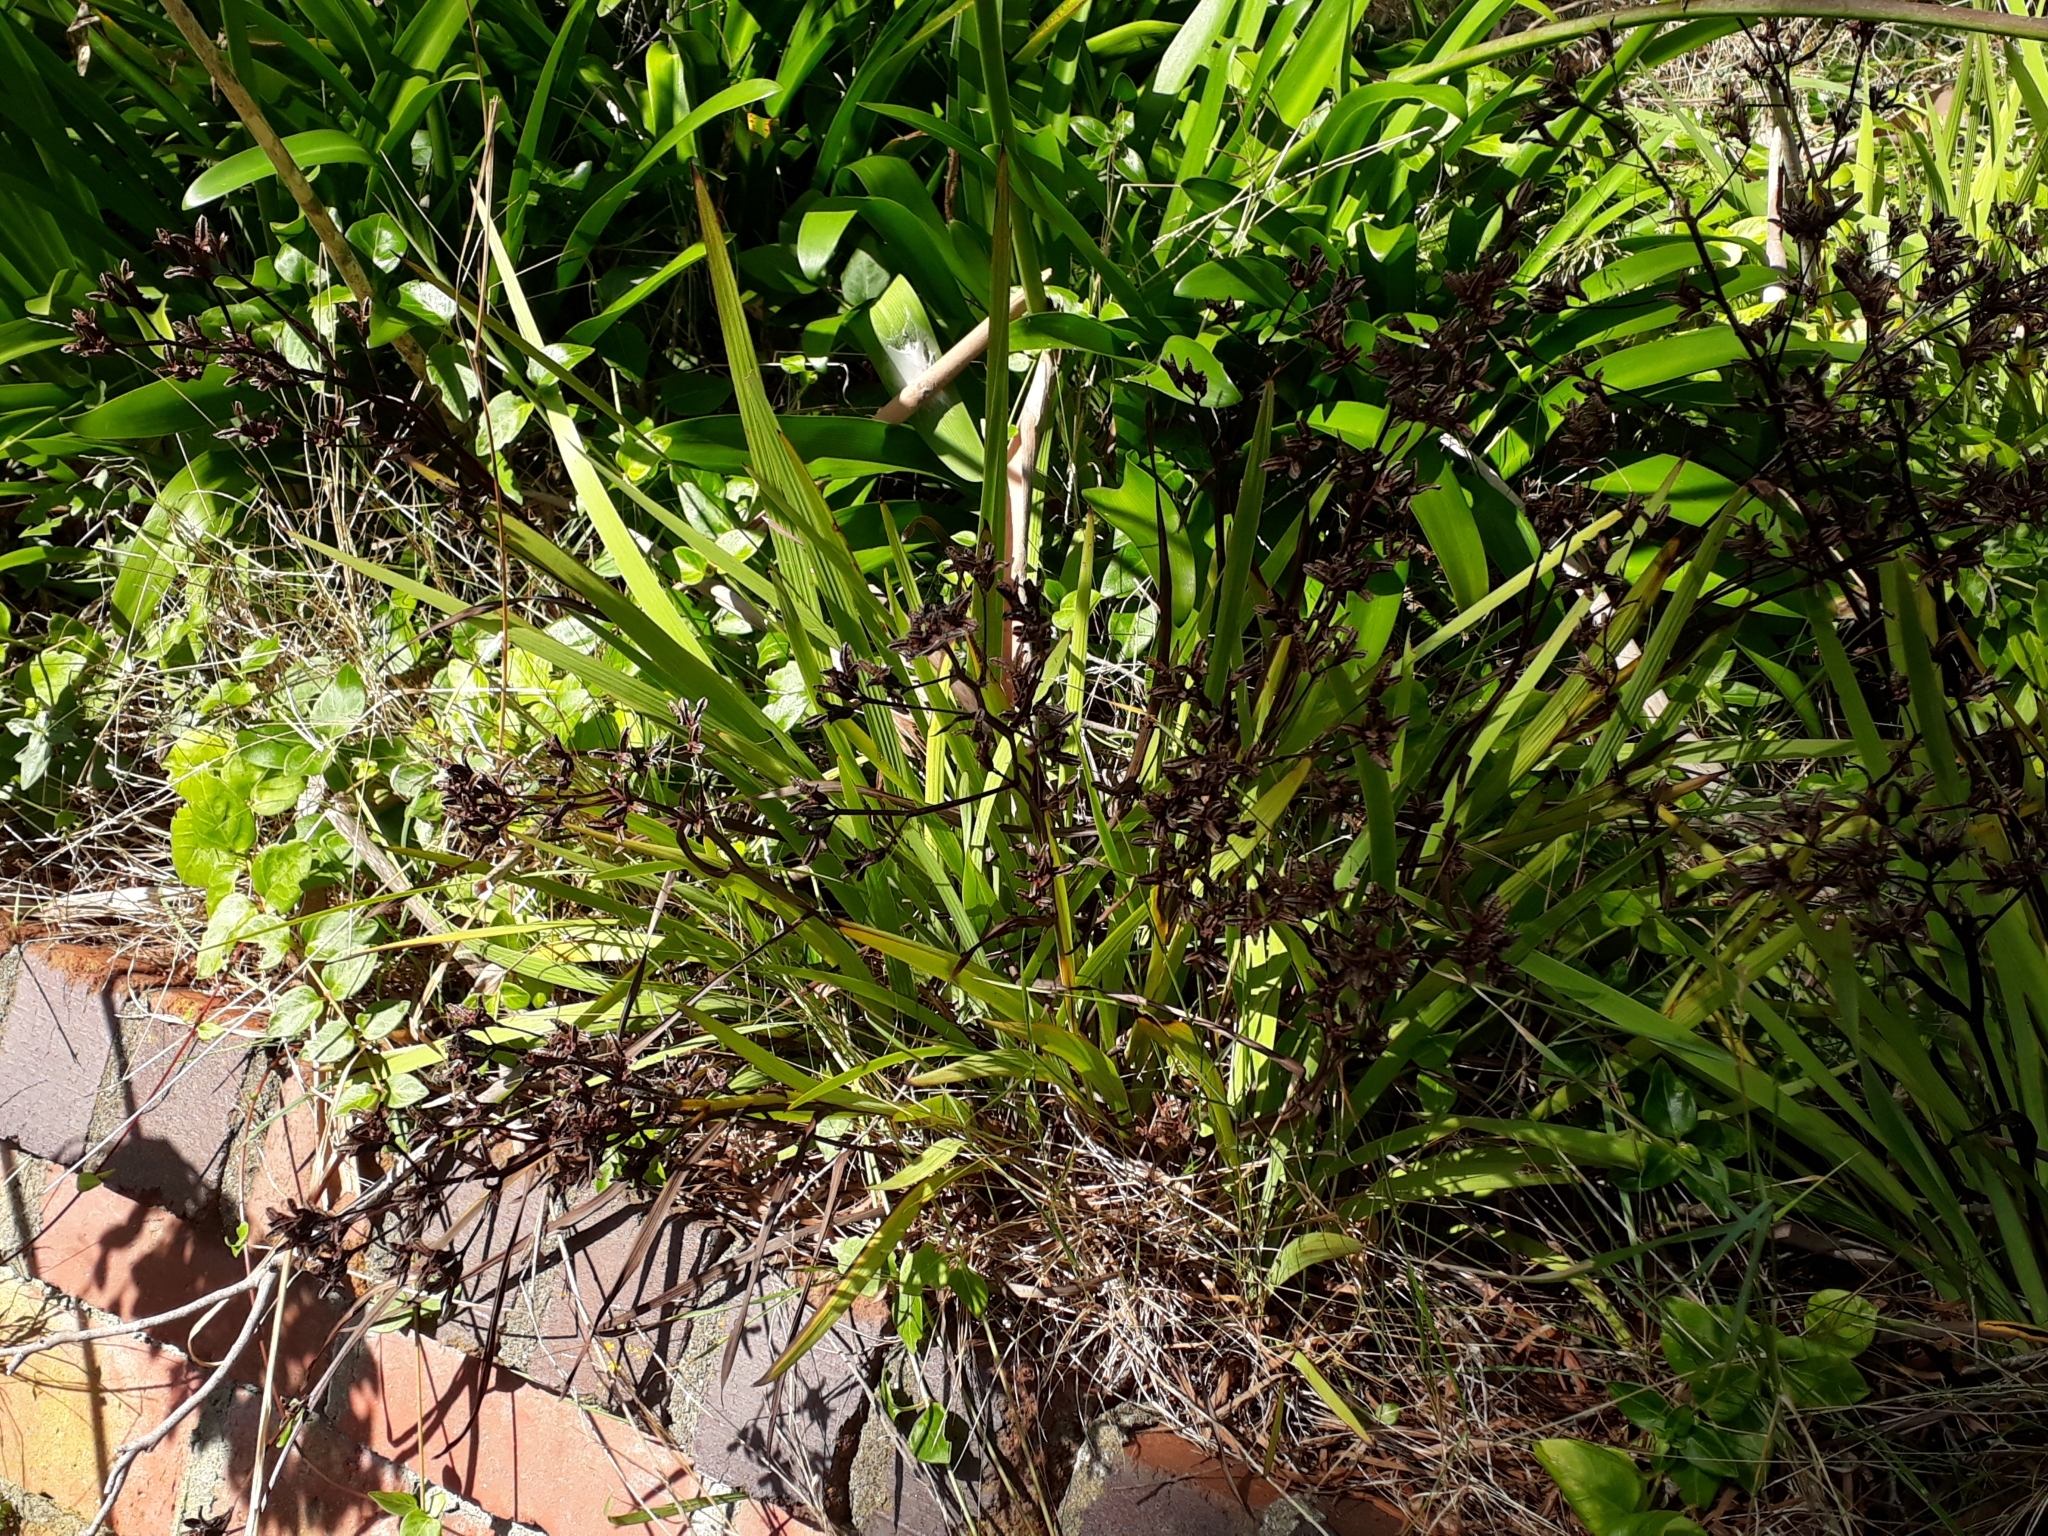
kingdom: Plantae
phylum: Tracheophyta
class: Liliopsida
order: Asparagales
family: Iridaceae
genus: Aristea
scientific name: Aristea ecklonii
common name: Blue corn-lily
